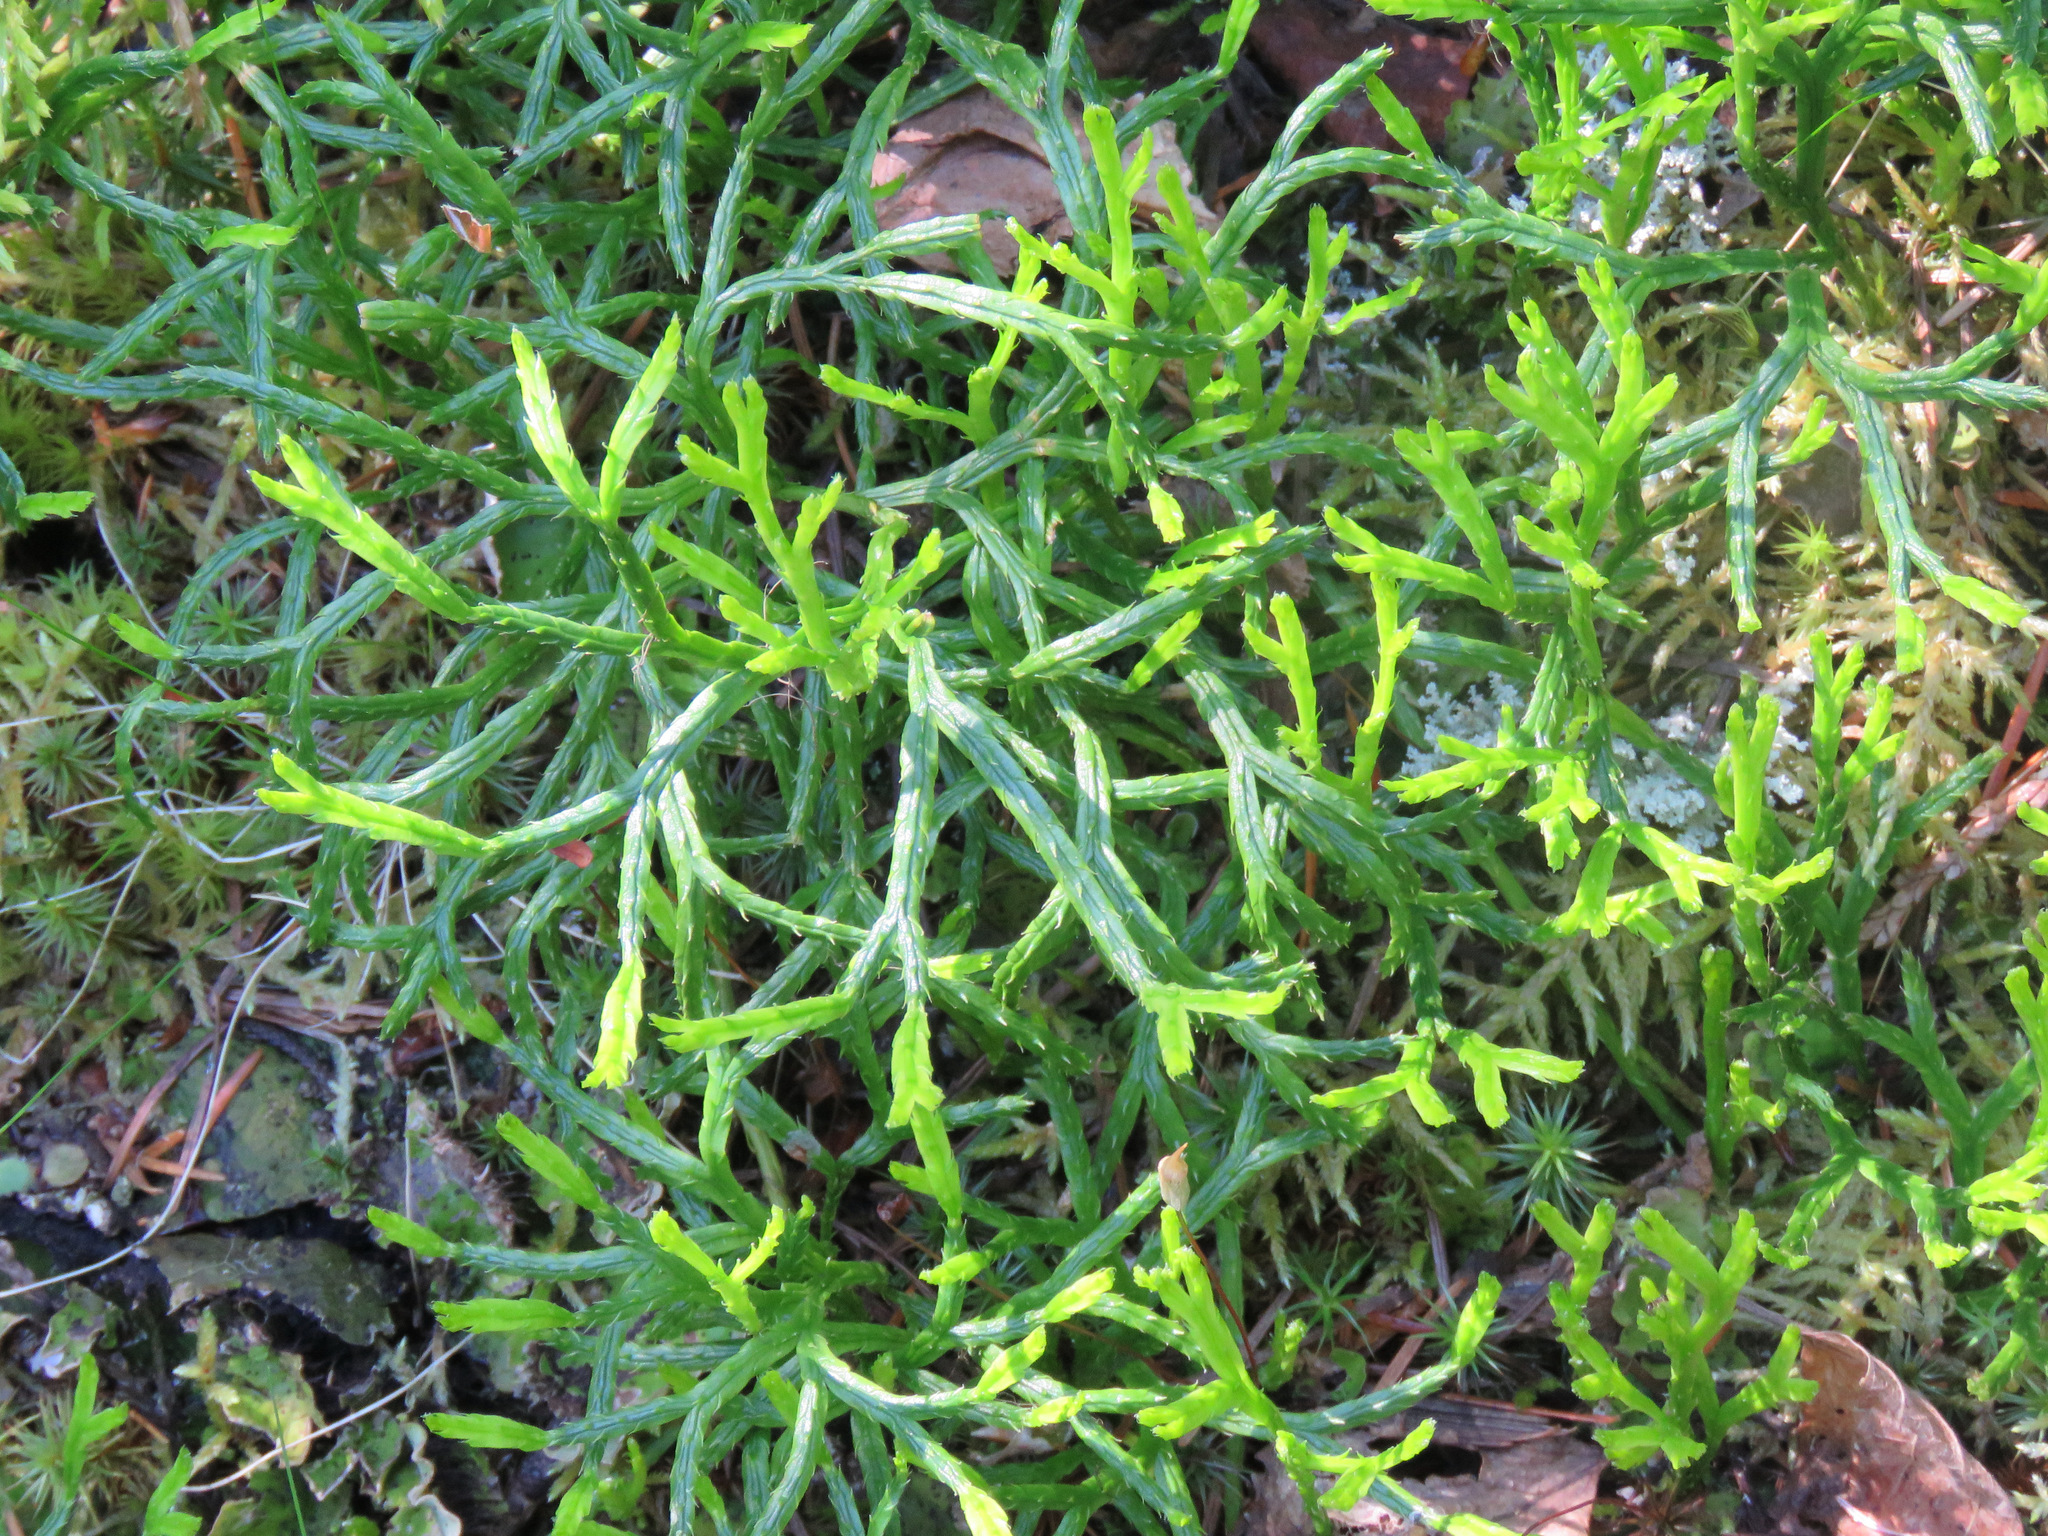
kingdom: Plantae
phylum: Tracheophyta
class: Lycopodiopsida
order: Lycopodiales
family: Lycopodiaceae
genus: Diphasiastrum
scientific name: Diphasiastrum complanatum
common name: Northern running-pine
